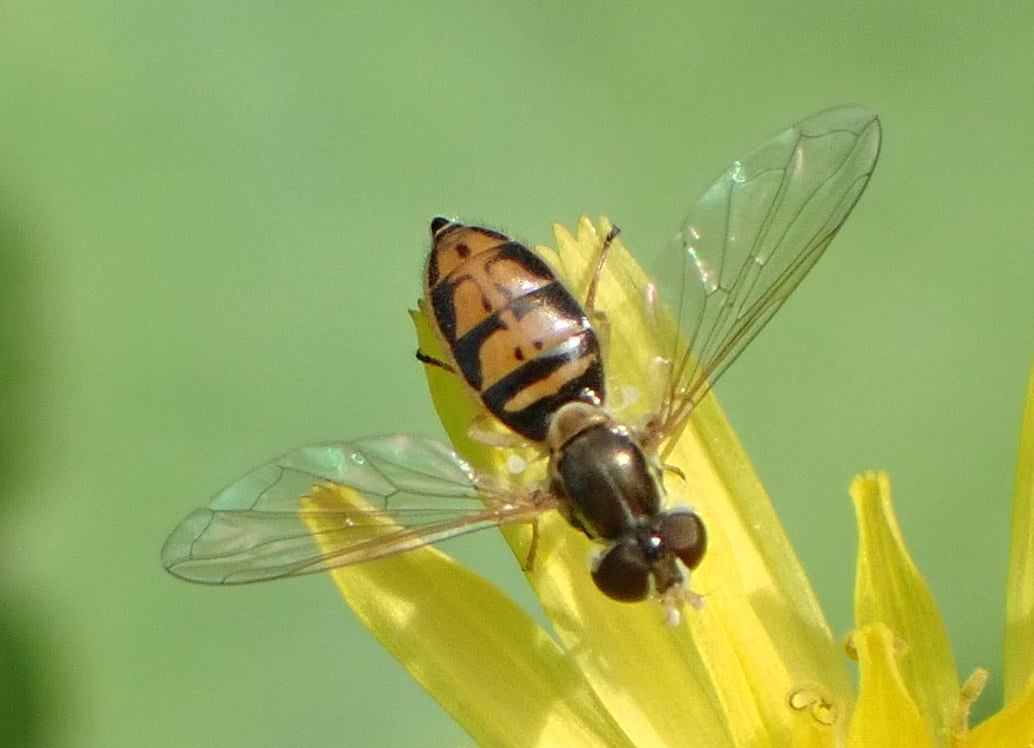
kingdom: Animalia
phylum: Arthropoda
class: Insecta
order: Diptera
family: Syrphidae
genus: Toxomerus
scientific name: Toxomerus marginatus
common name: Syrphid fly
